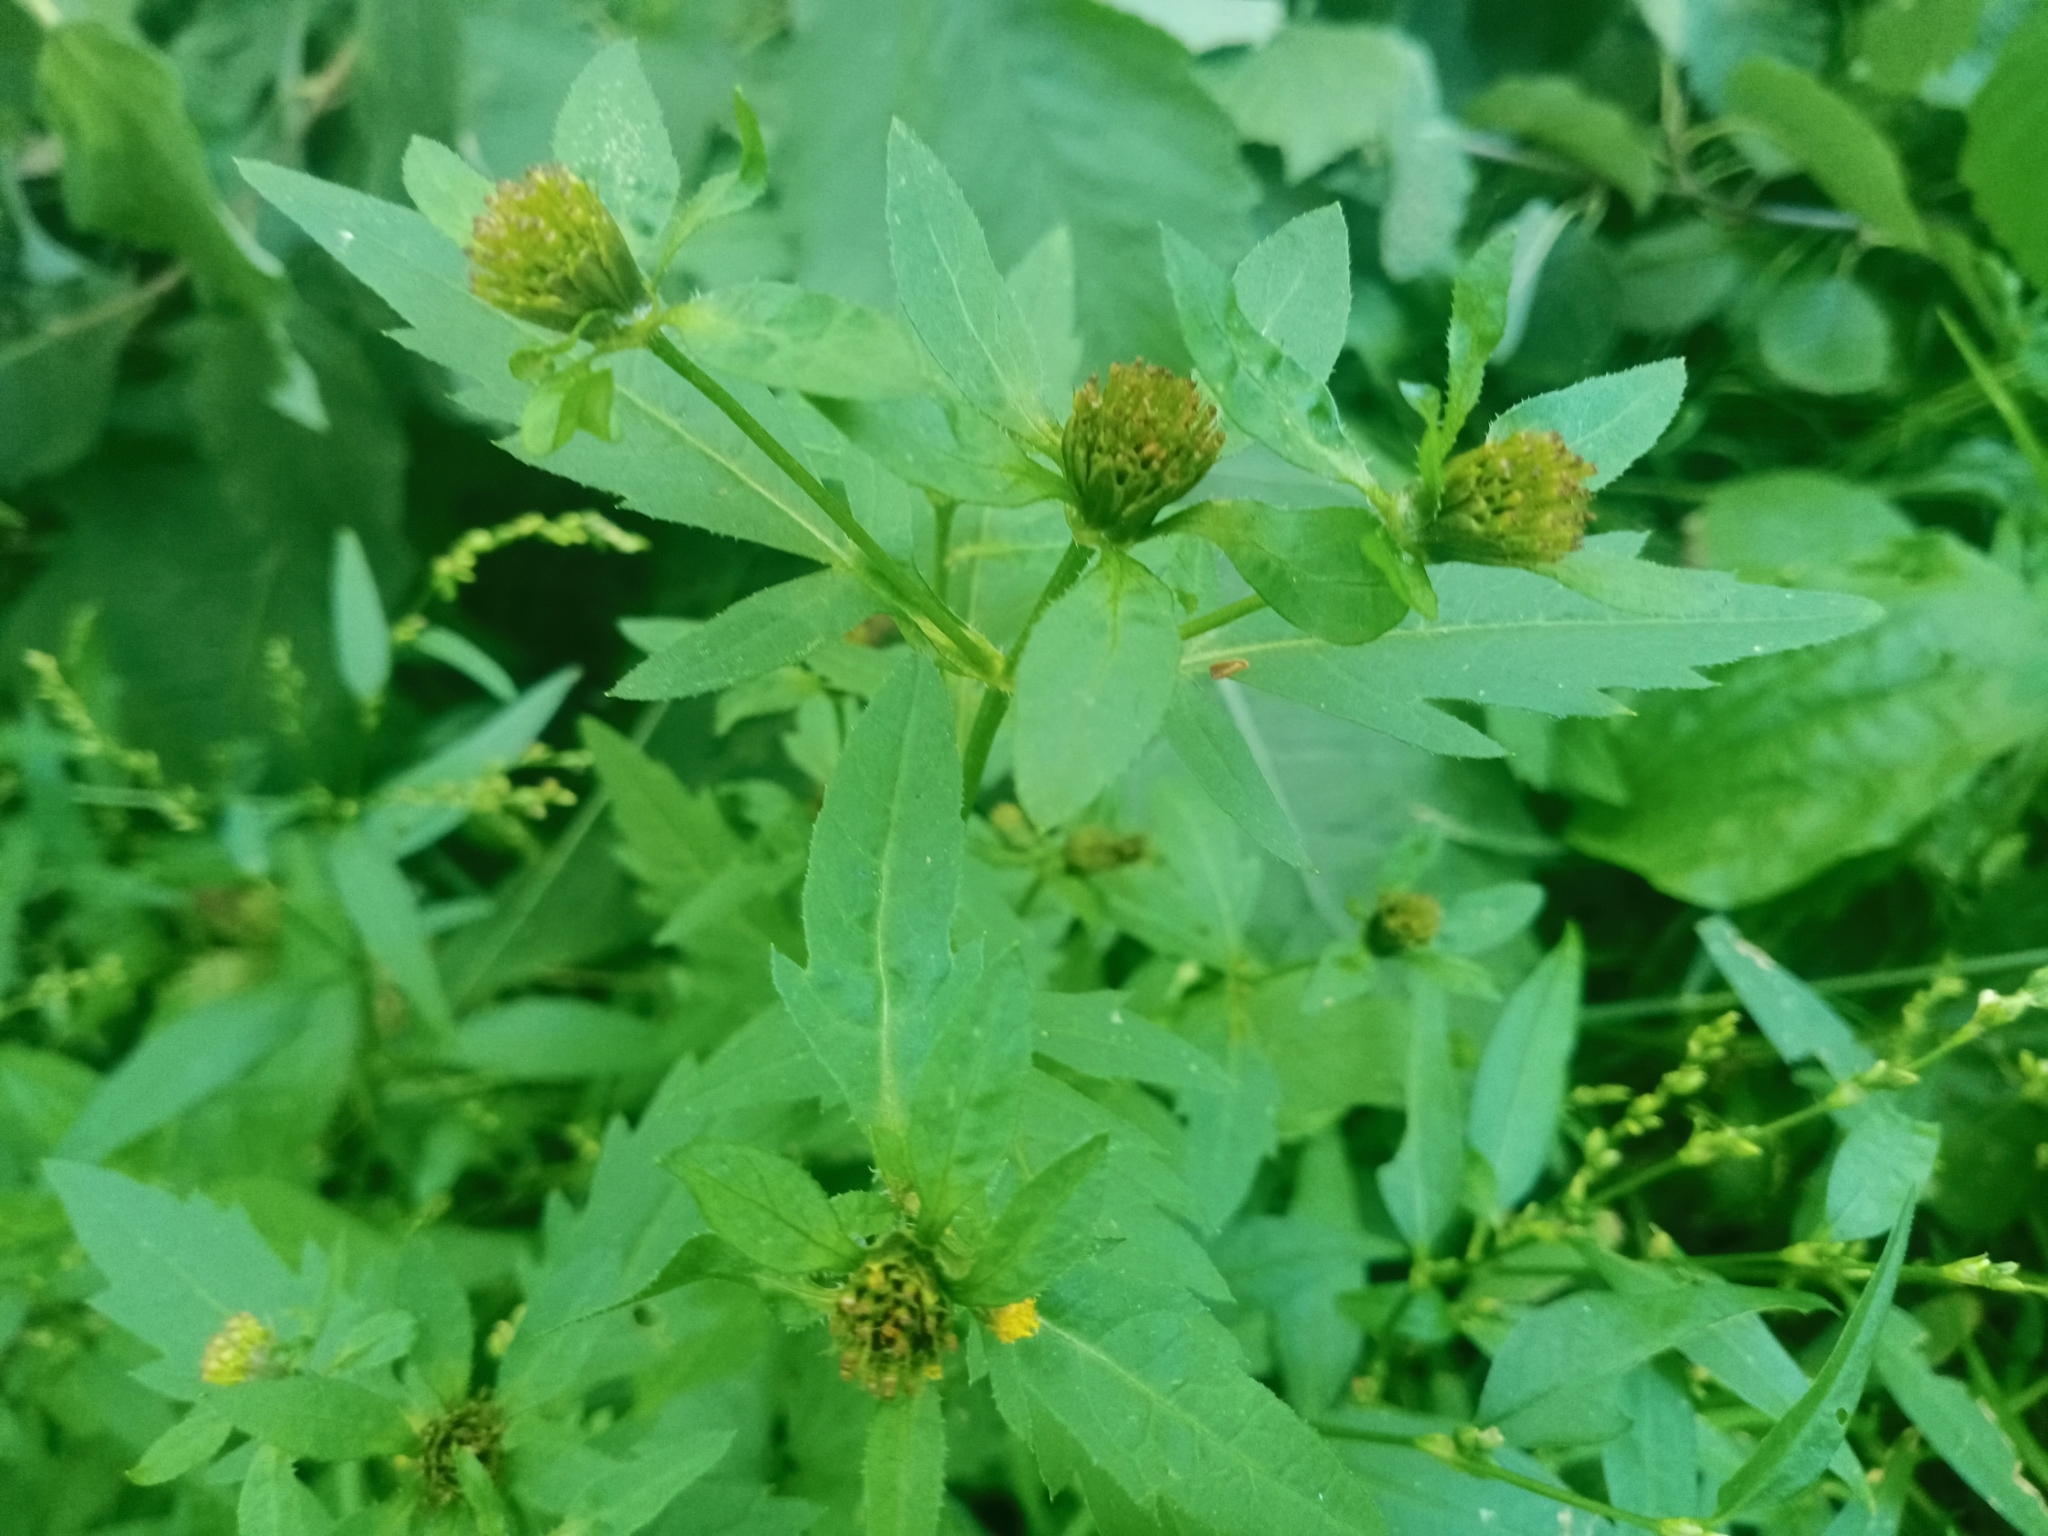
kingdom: Plantae
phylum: Tracheophyta
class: Magnoliopsida
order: Asterales
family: Asteraceae
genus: Bidens
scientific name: Bidens tripartita
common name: Trifid bur-marigold
